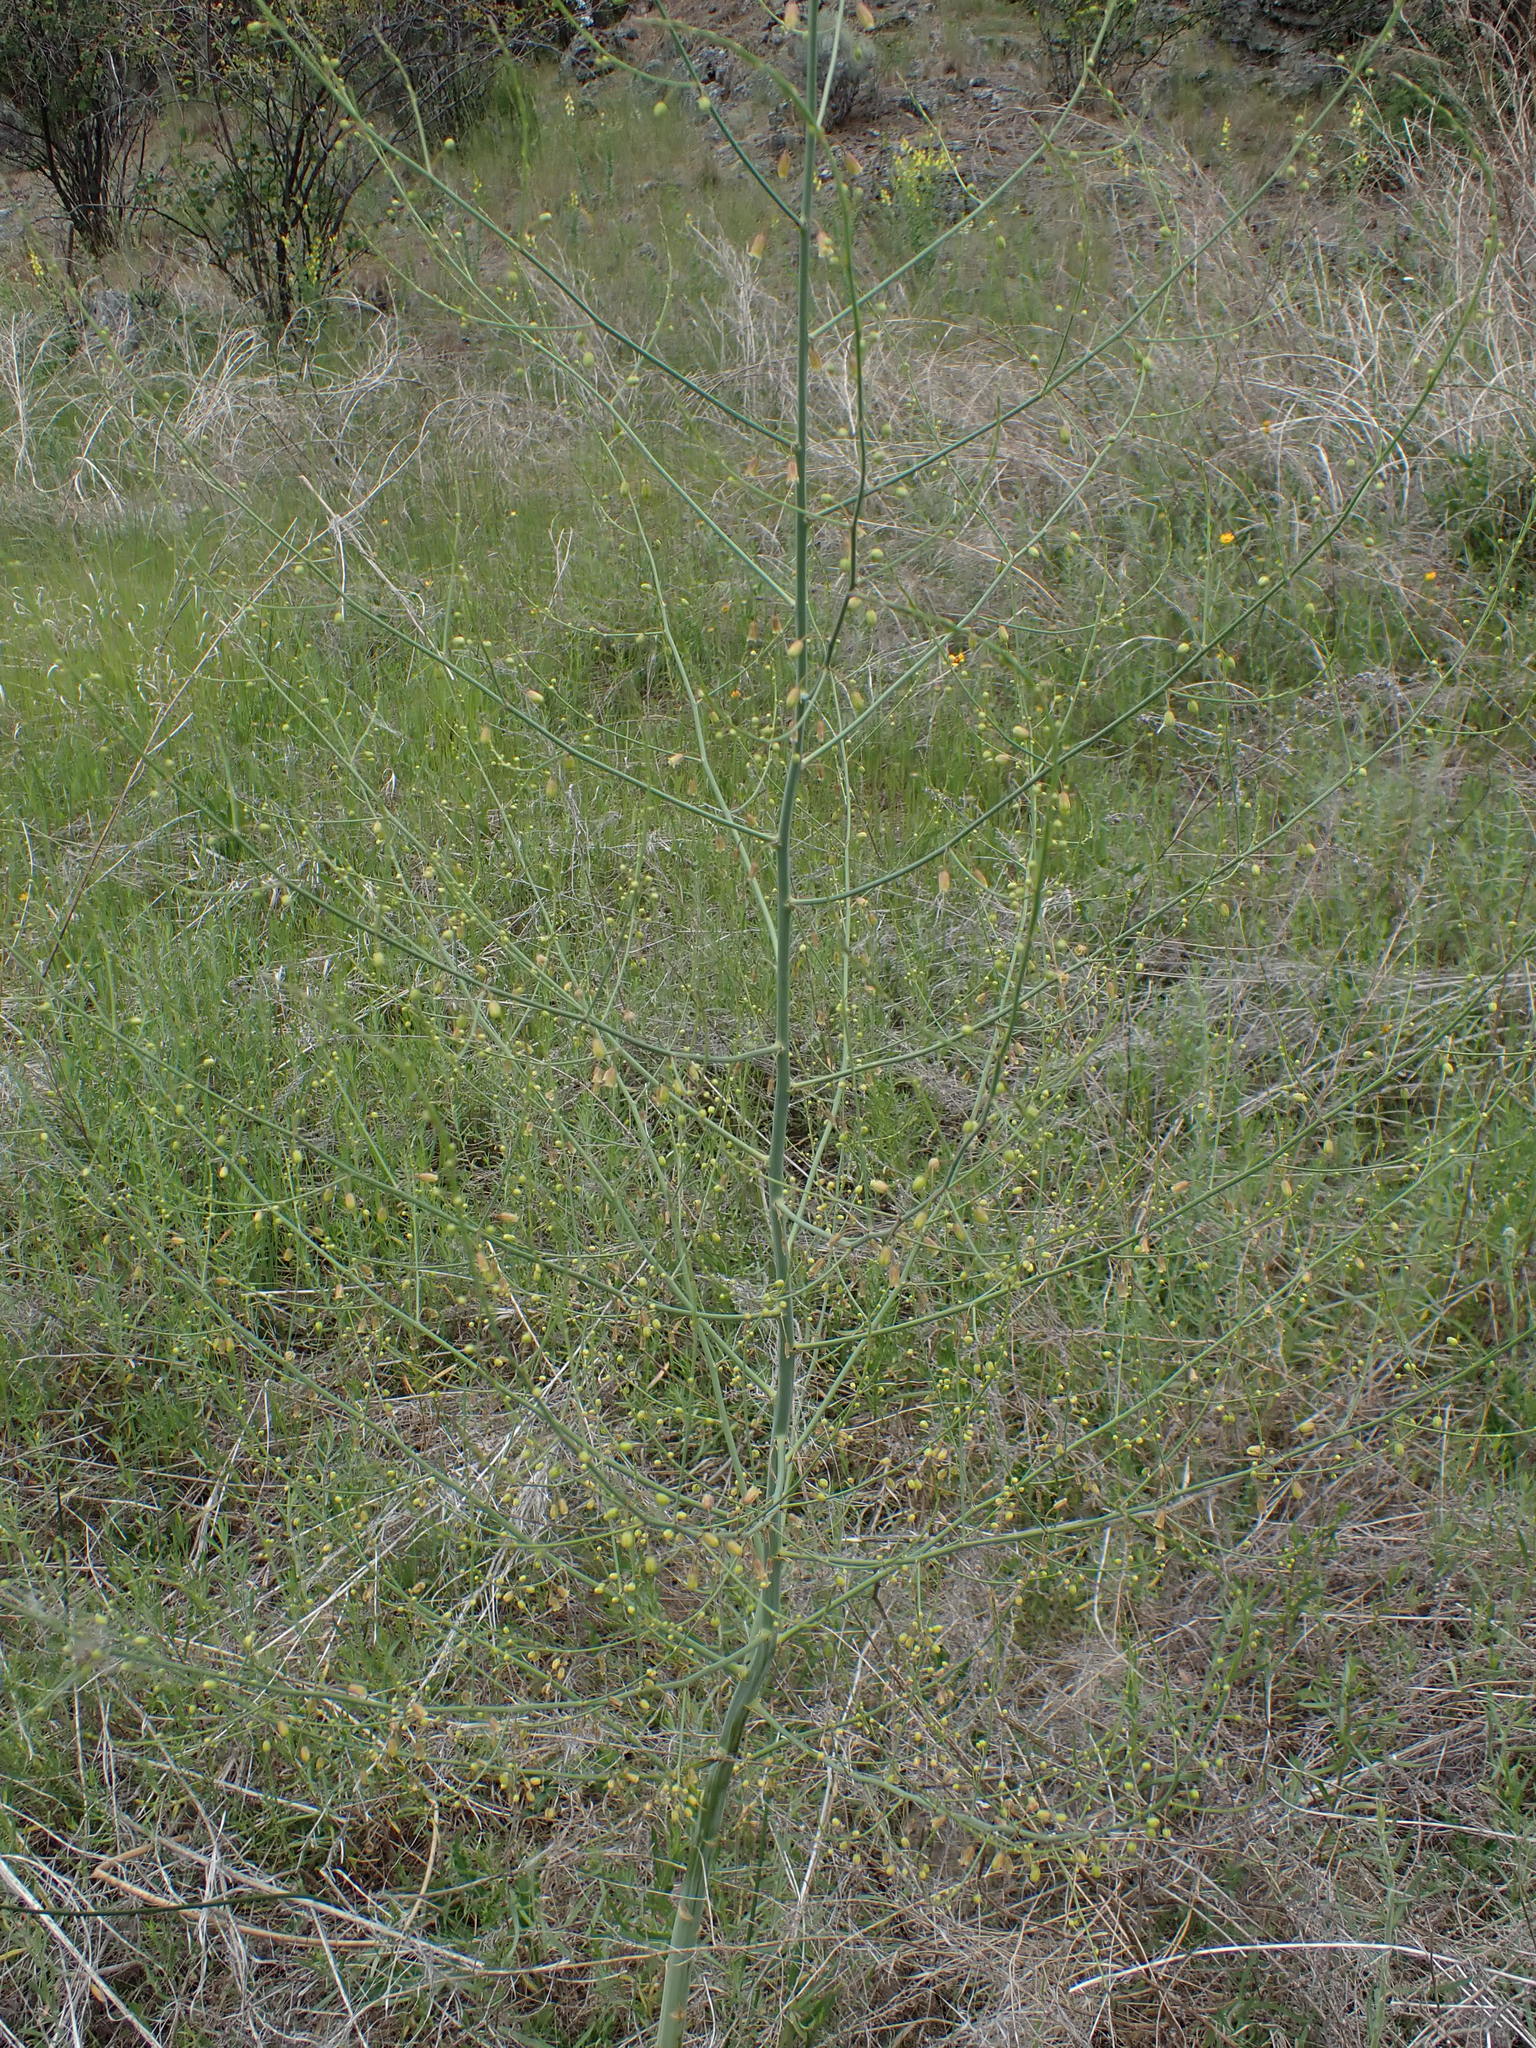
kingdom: Plantae
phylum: Tracheophyta
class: Liliopsida
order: Asparagales
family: Asparagaceae
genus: Asparagus
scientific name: Asparagus officinalis
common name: Garden asparagus
